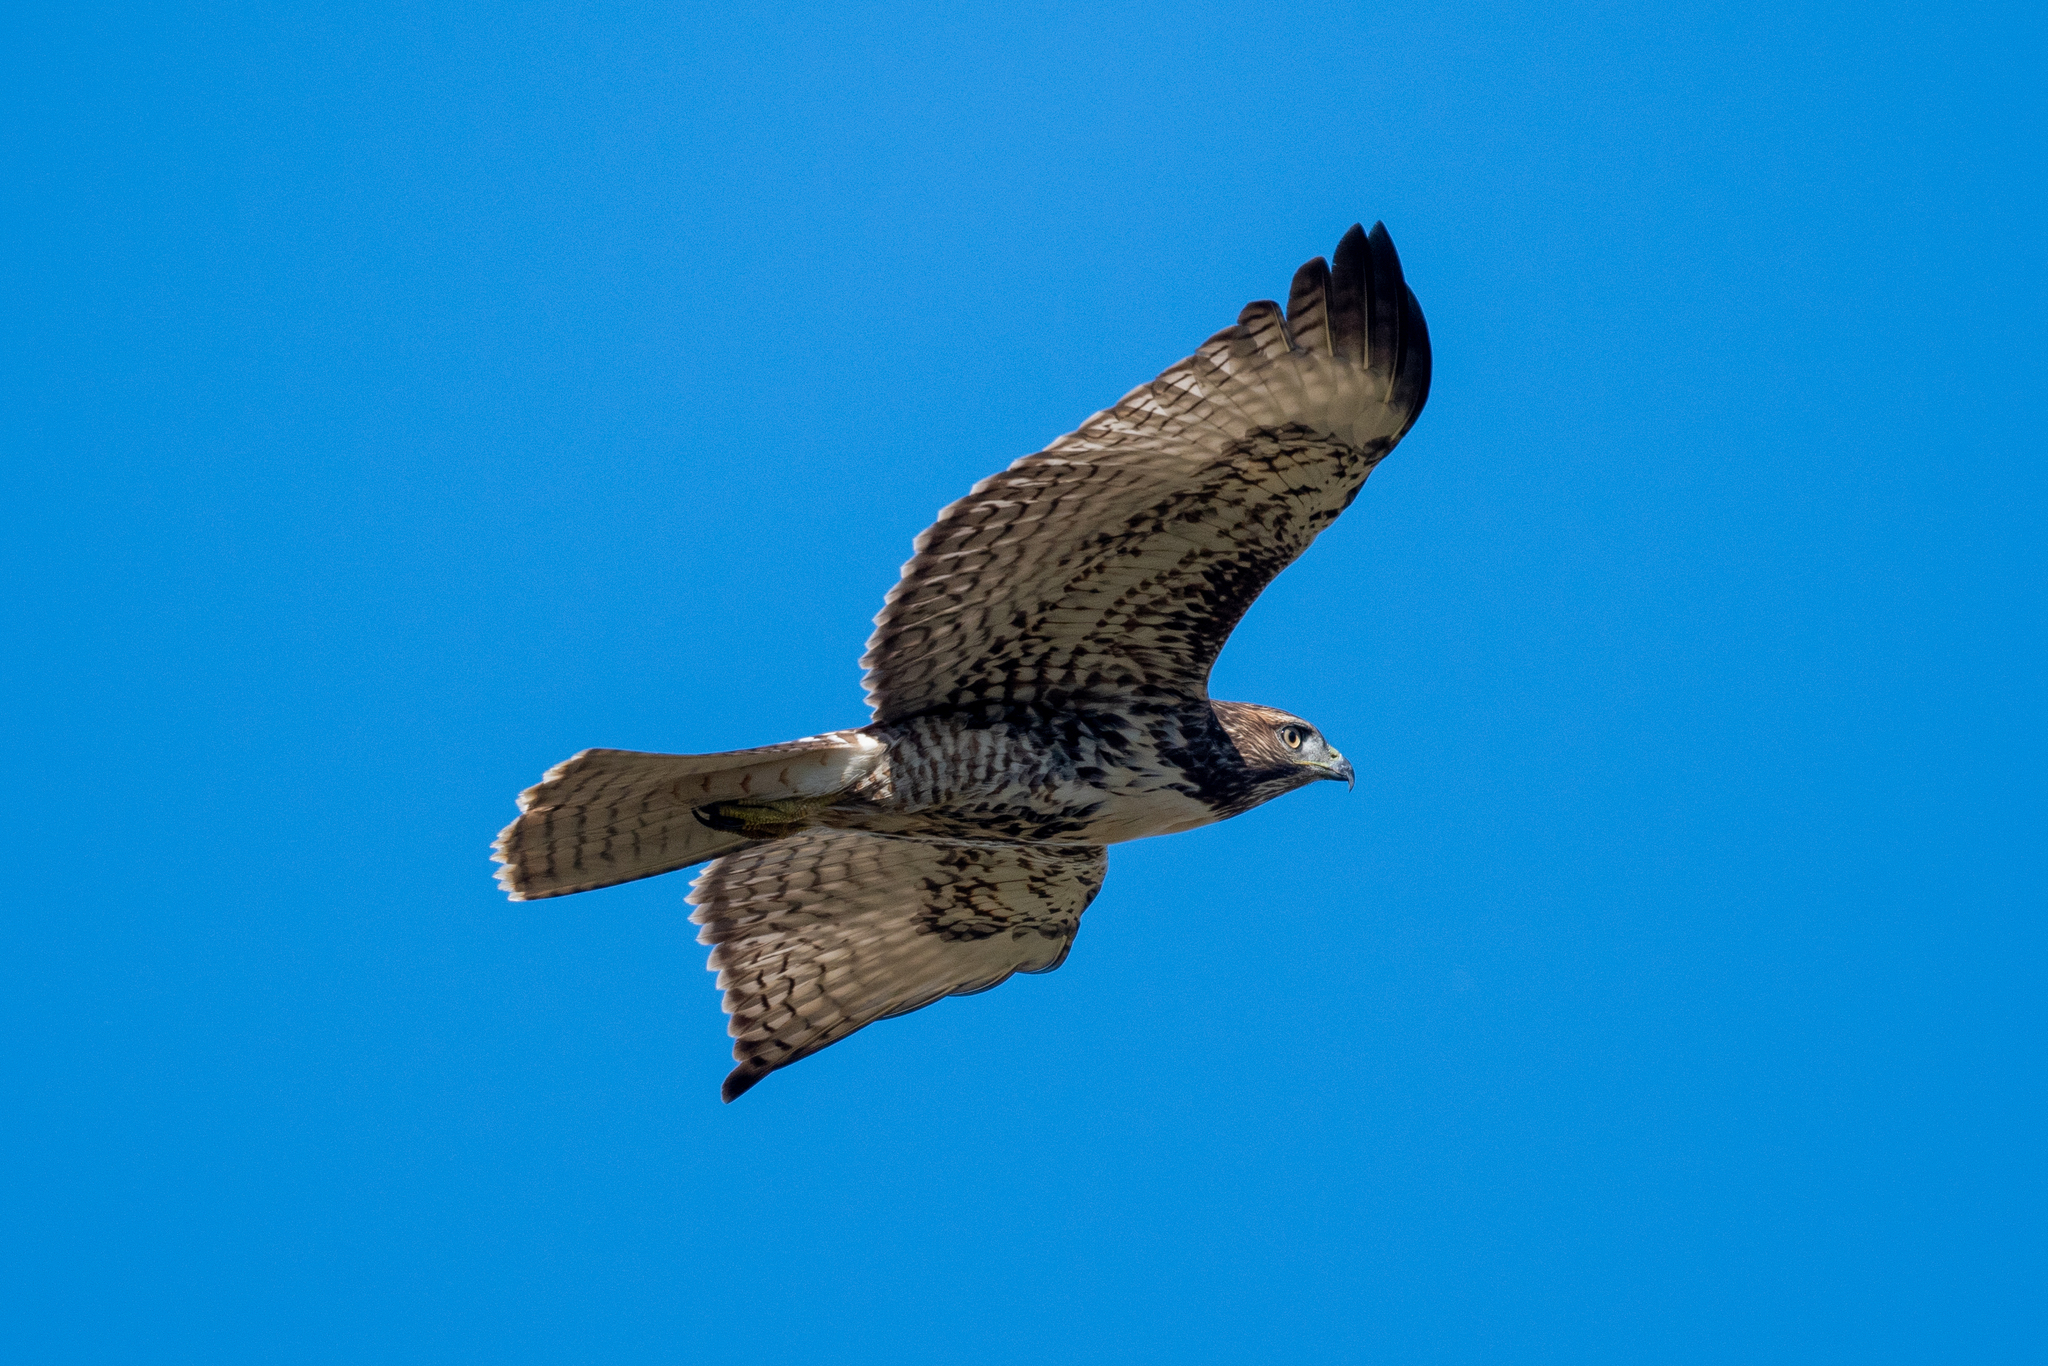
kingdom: Animalia
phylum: Chordata
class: Aves
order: Accipitriformes
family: Accipitridae
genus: Buteo
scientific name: Buteo jamaicensis
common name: Red-tailed hawk
